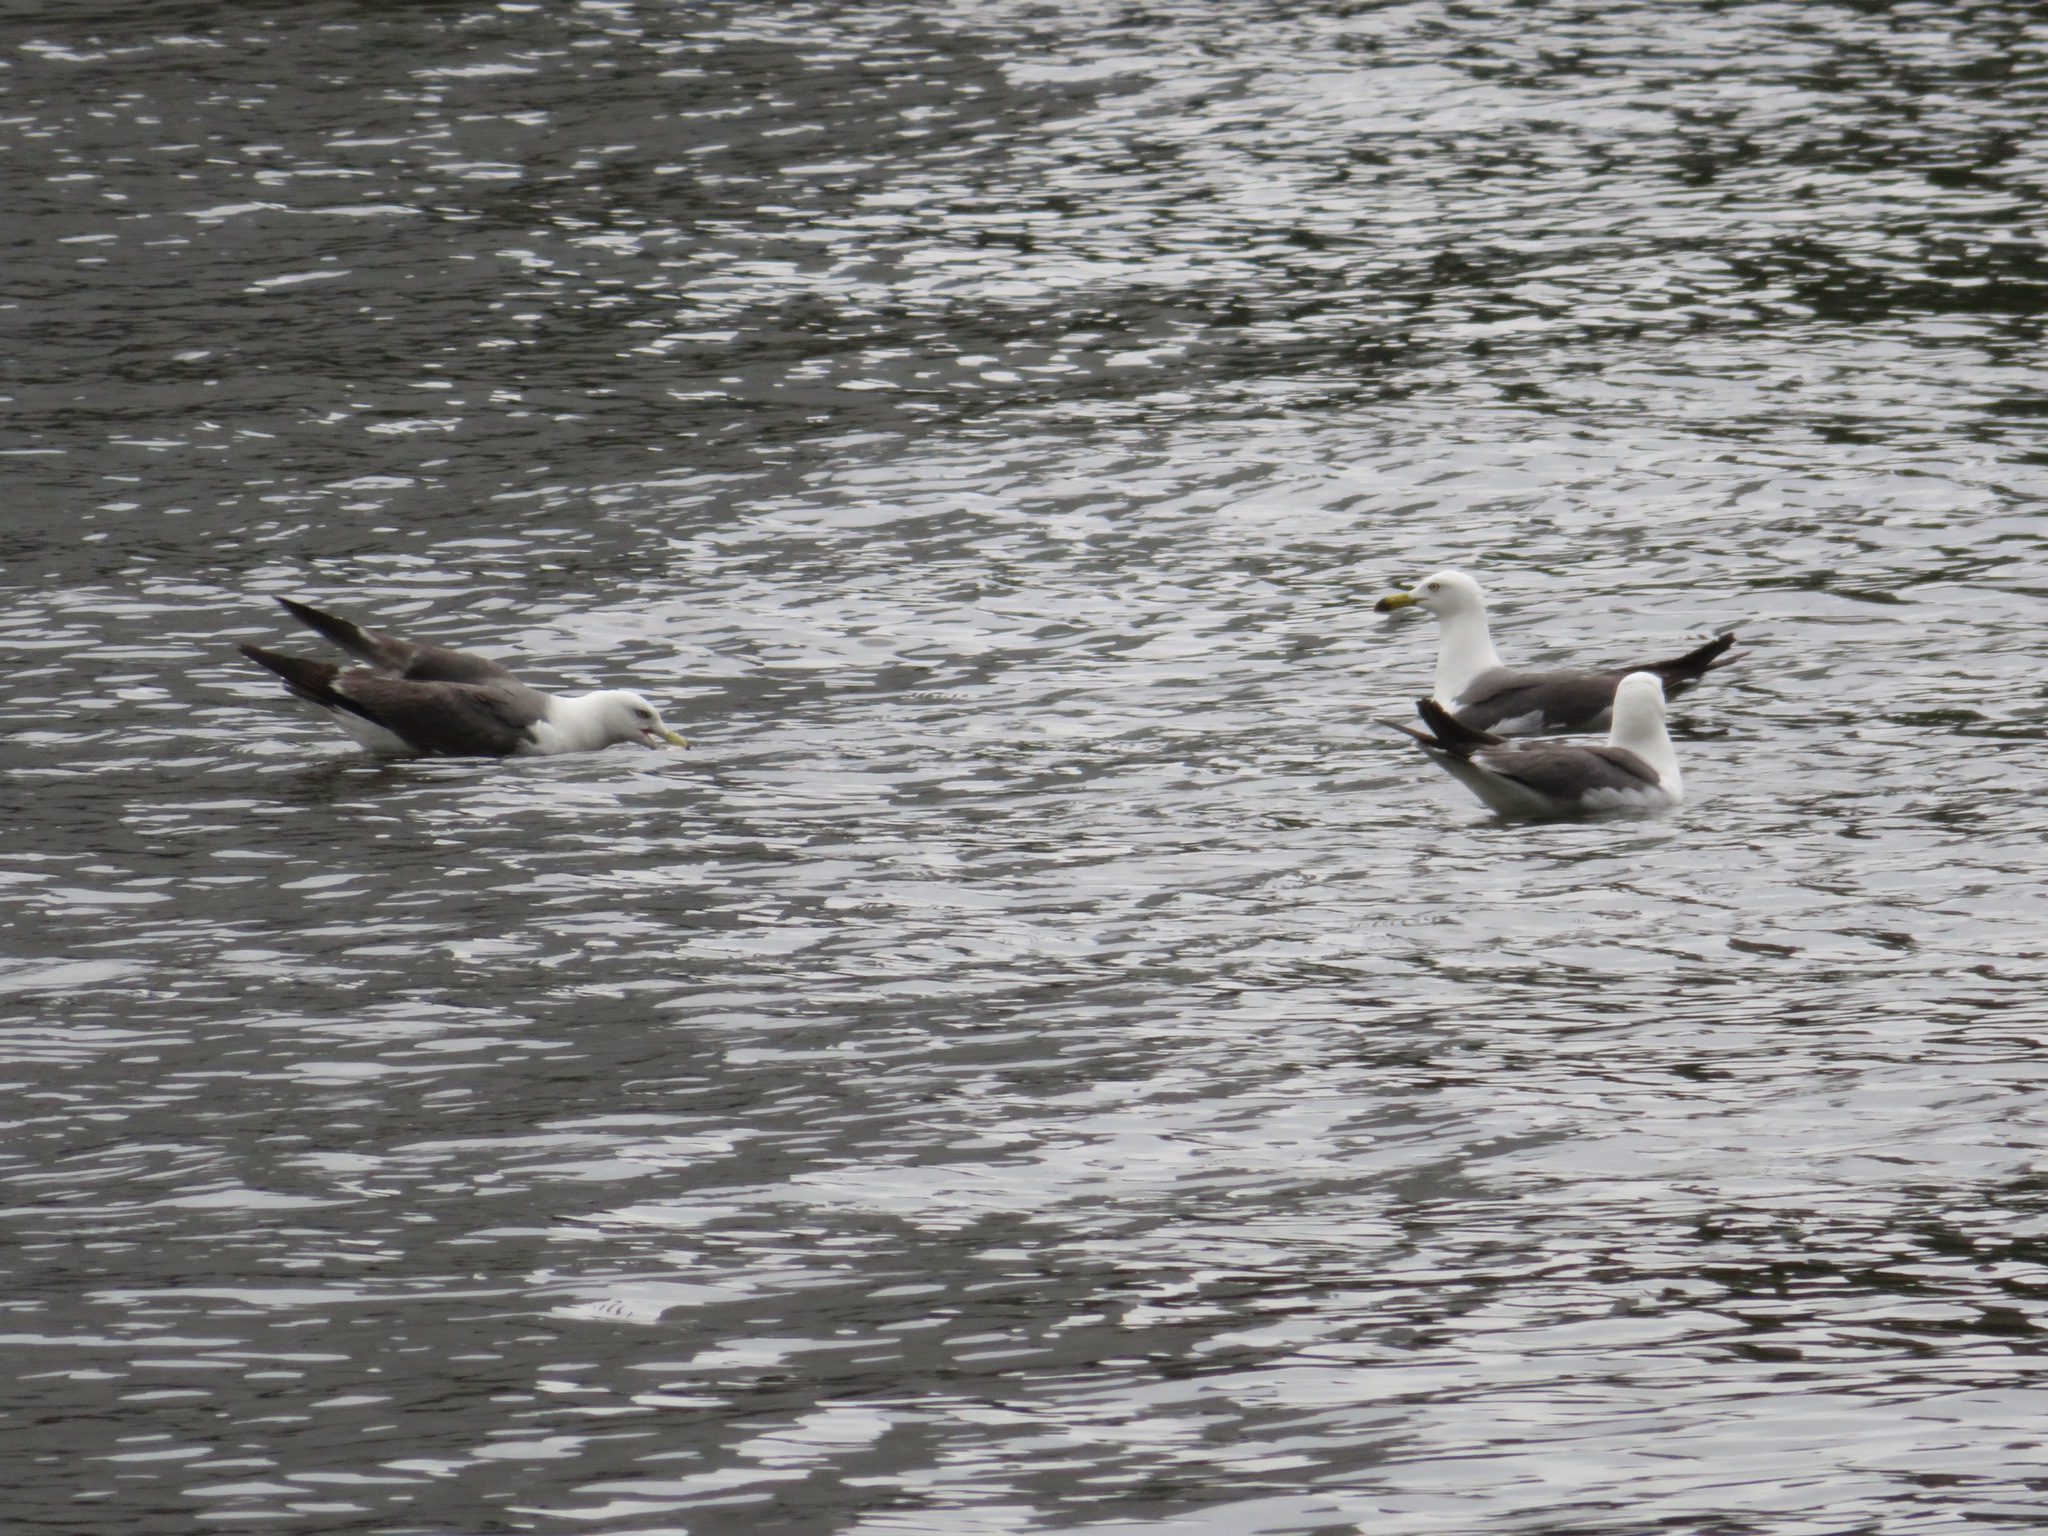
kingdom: Animalia
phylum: Chordata
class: Aves
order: Charadriiformes
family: Laridae
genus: Larus
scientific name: Larus crassirostris
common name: Black-tailed gull
